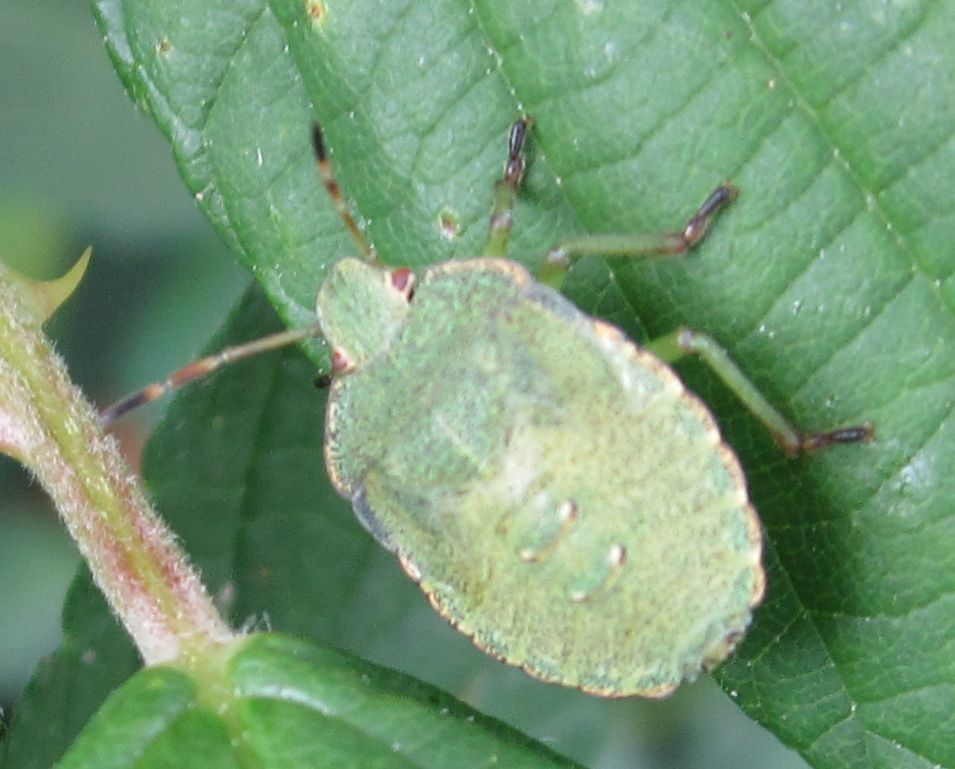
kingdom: Animalia
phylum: Arthropoda
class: Insecta
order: Hemiptera
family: Pentatomidae
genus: Palomena
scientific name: Palomena prasina
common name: Green shieldbug
